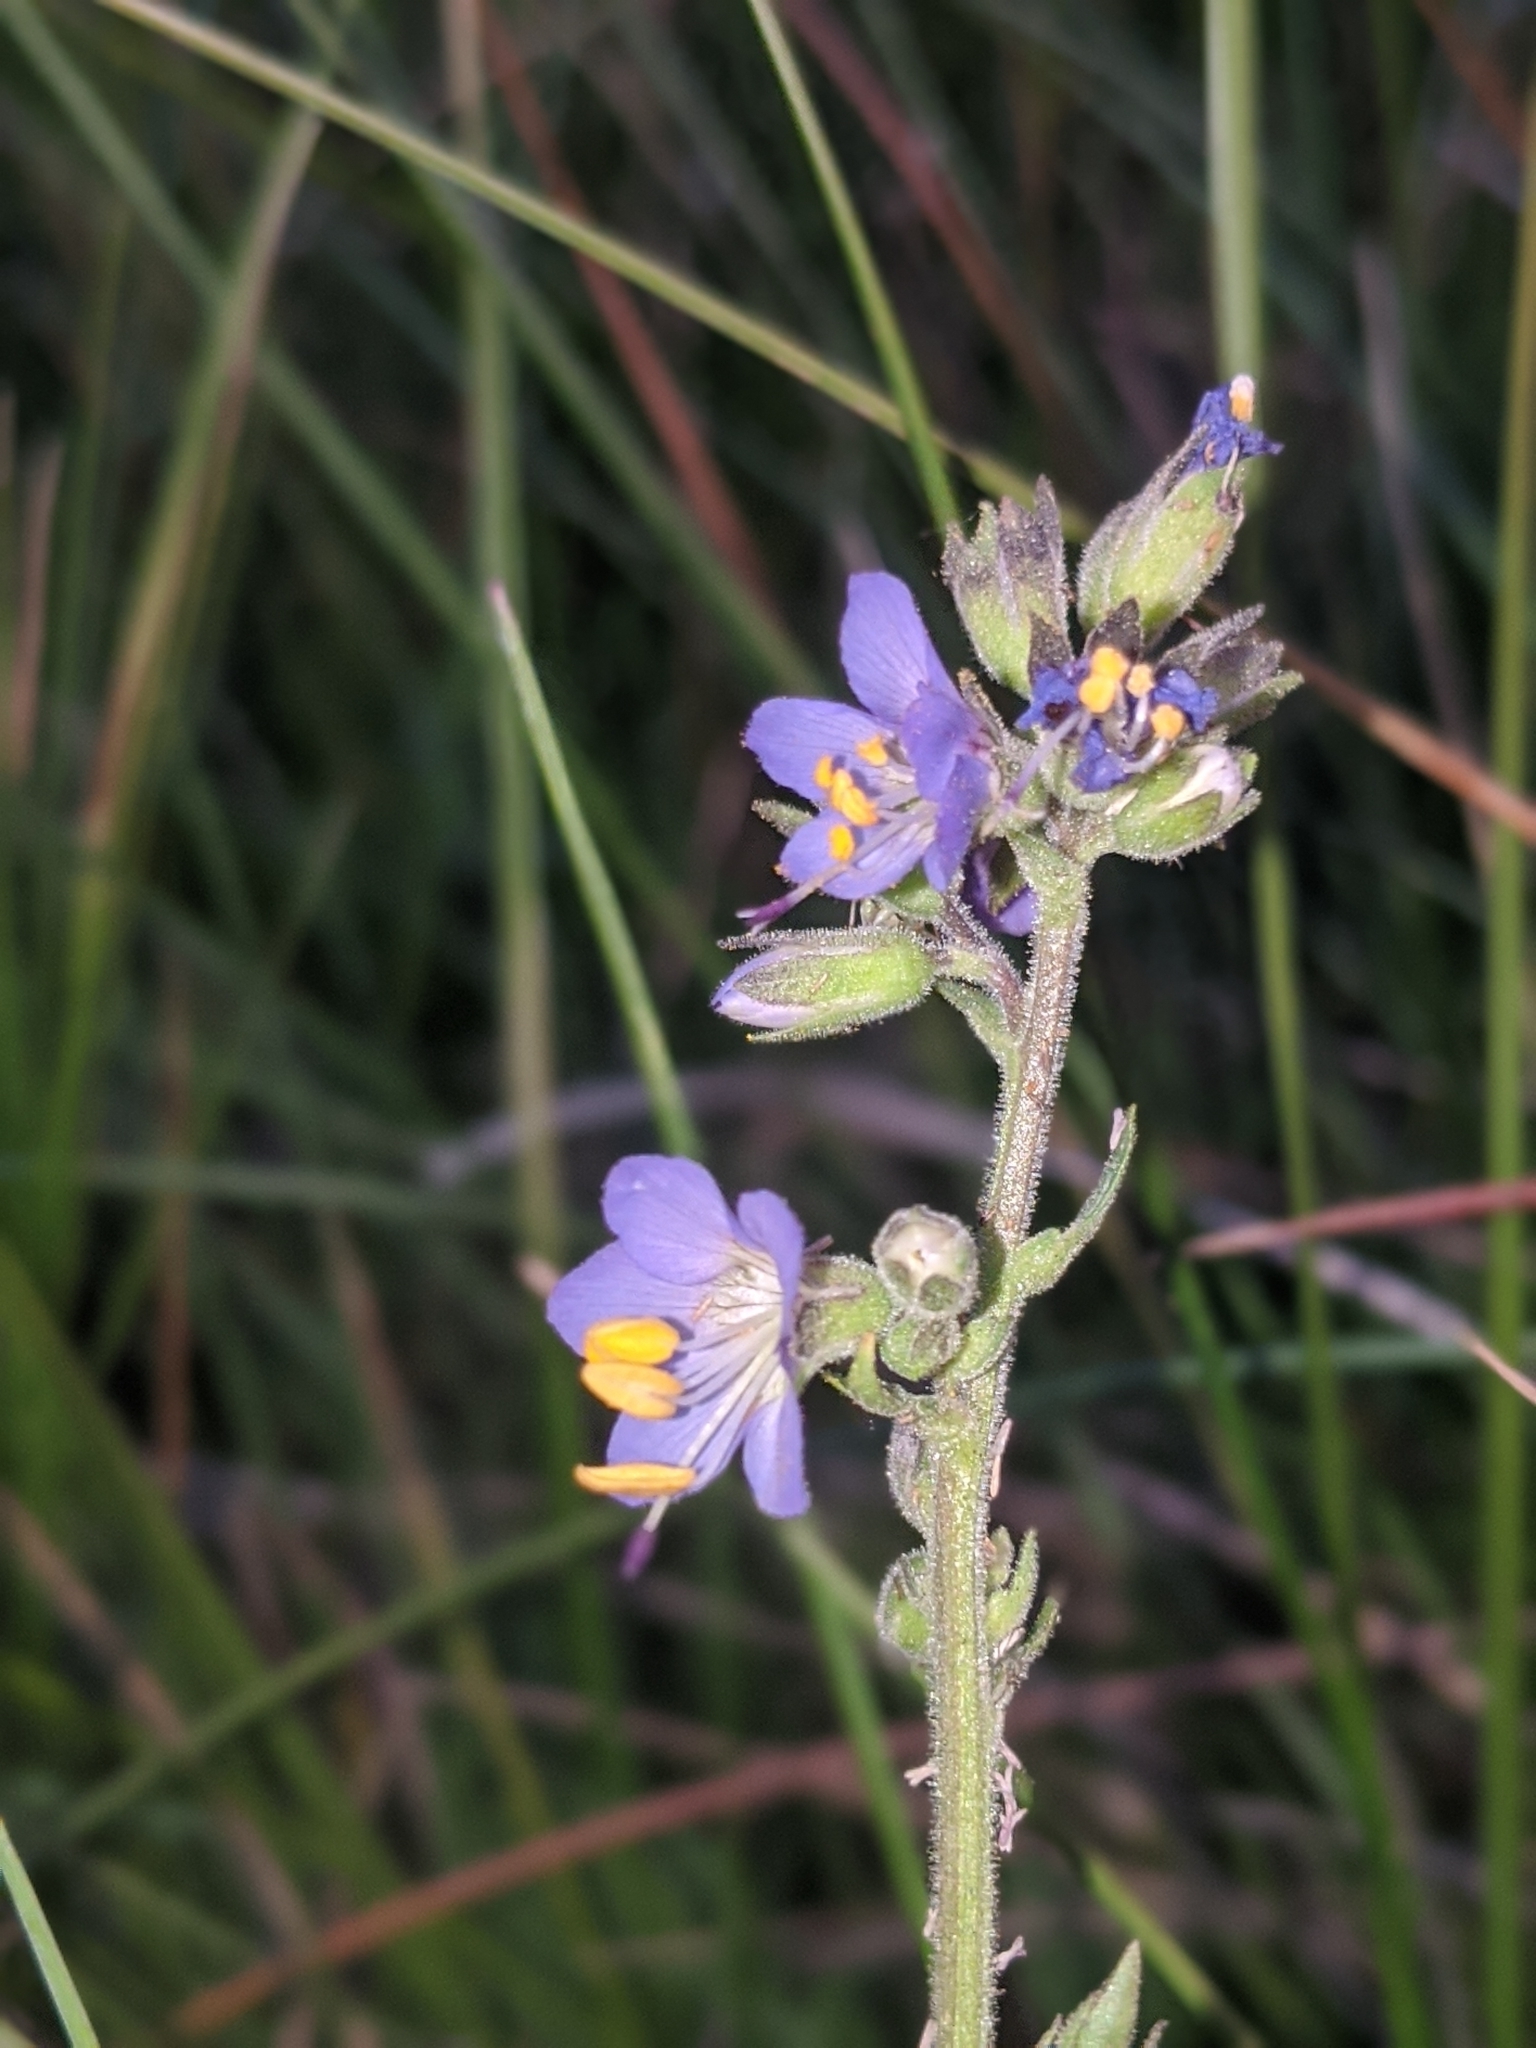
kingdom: Plantae
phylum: Tracheophyta
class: Magnoliopsida
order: Ericales
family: Polemoniaceae
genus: Polemonium
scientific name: Polemonium occidentale
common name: Western jacob's-ladder
